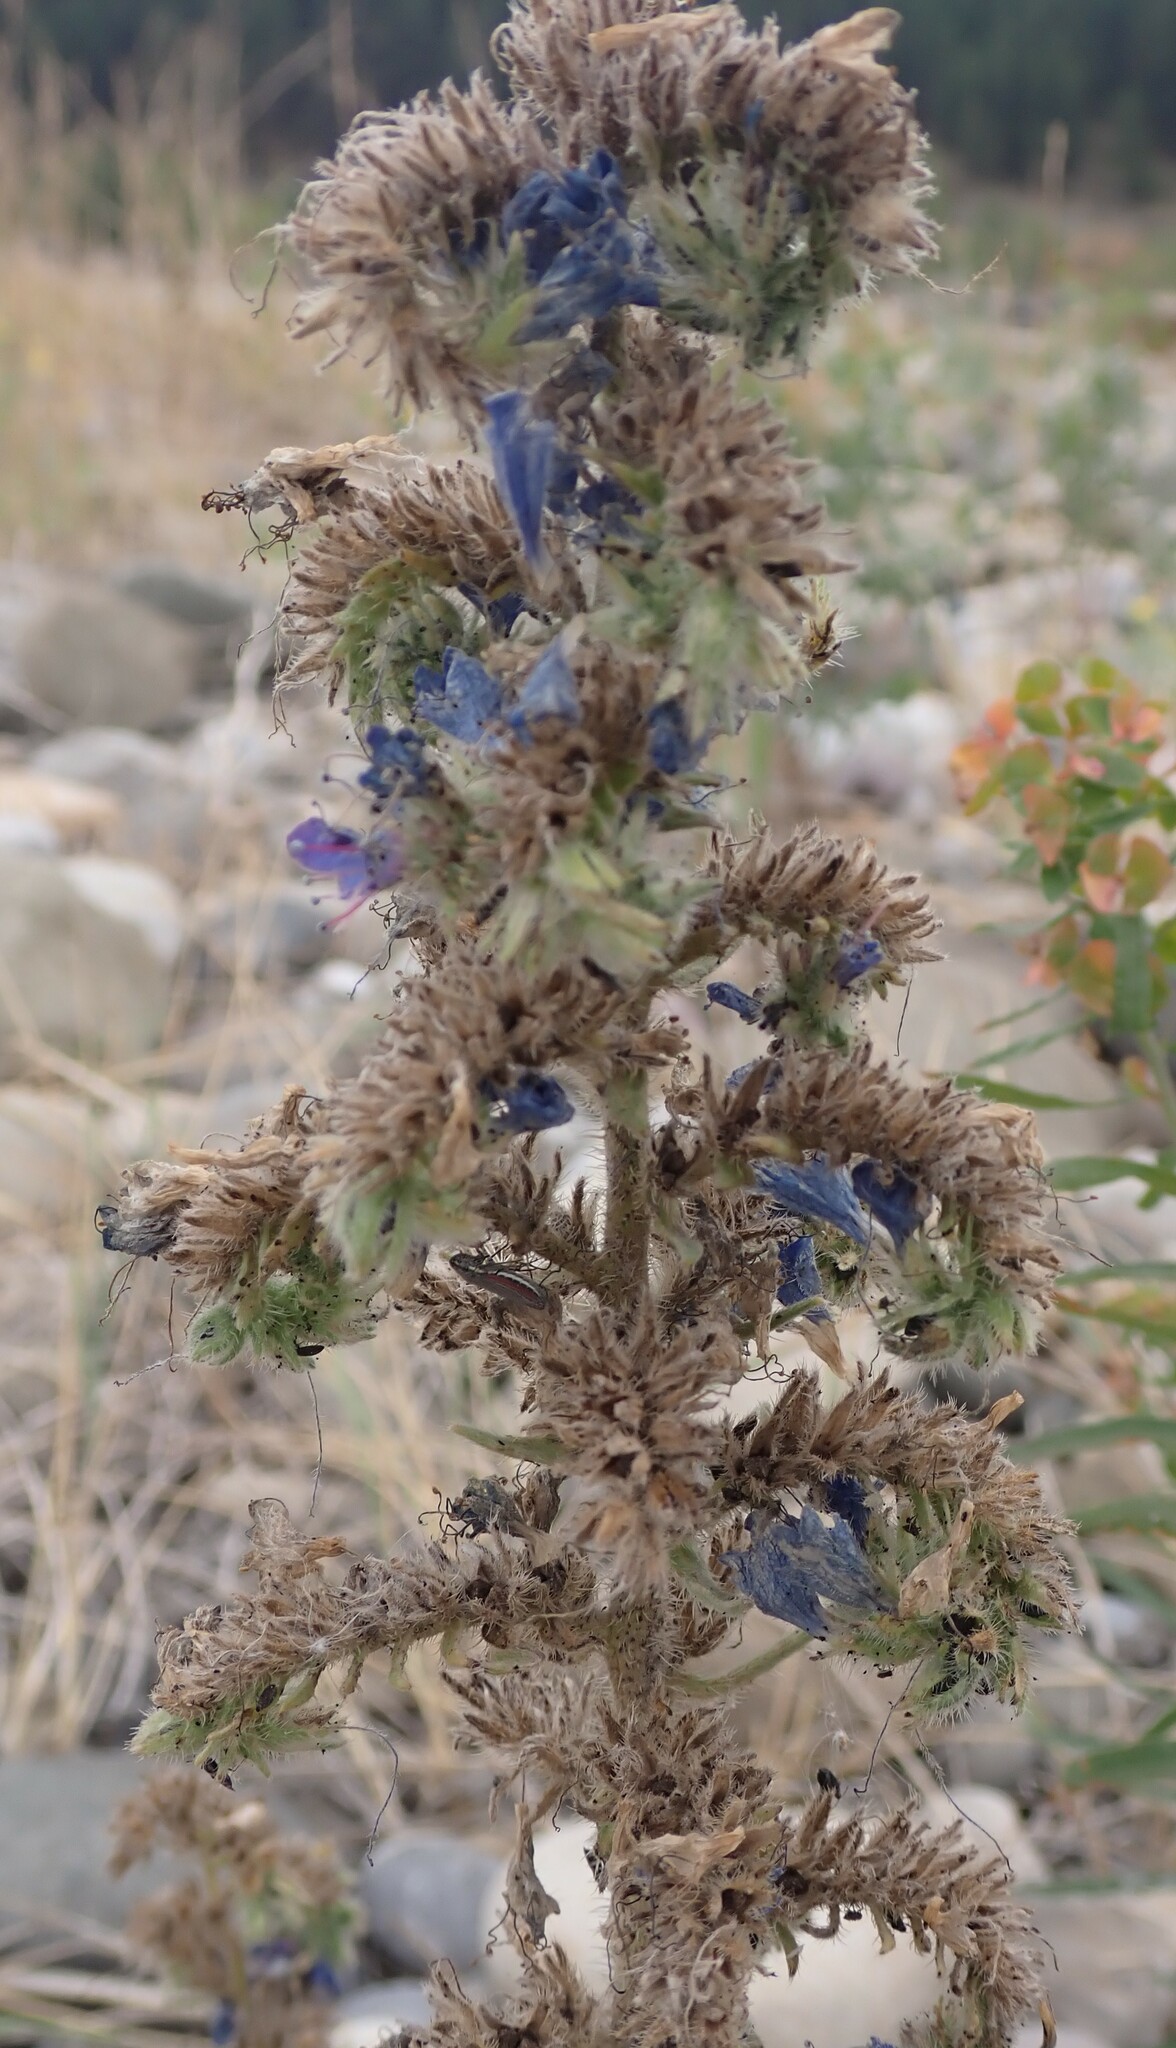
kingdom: Plantae
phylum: Tracheophyta
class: Magnoliopsida
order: Boraginales
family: Boraginaceae
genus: Echium
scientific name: Echium vulgare
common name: Common viper's bugloss
